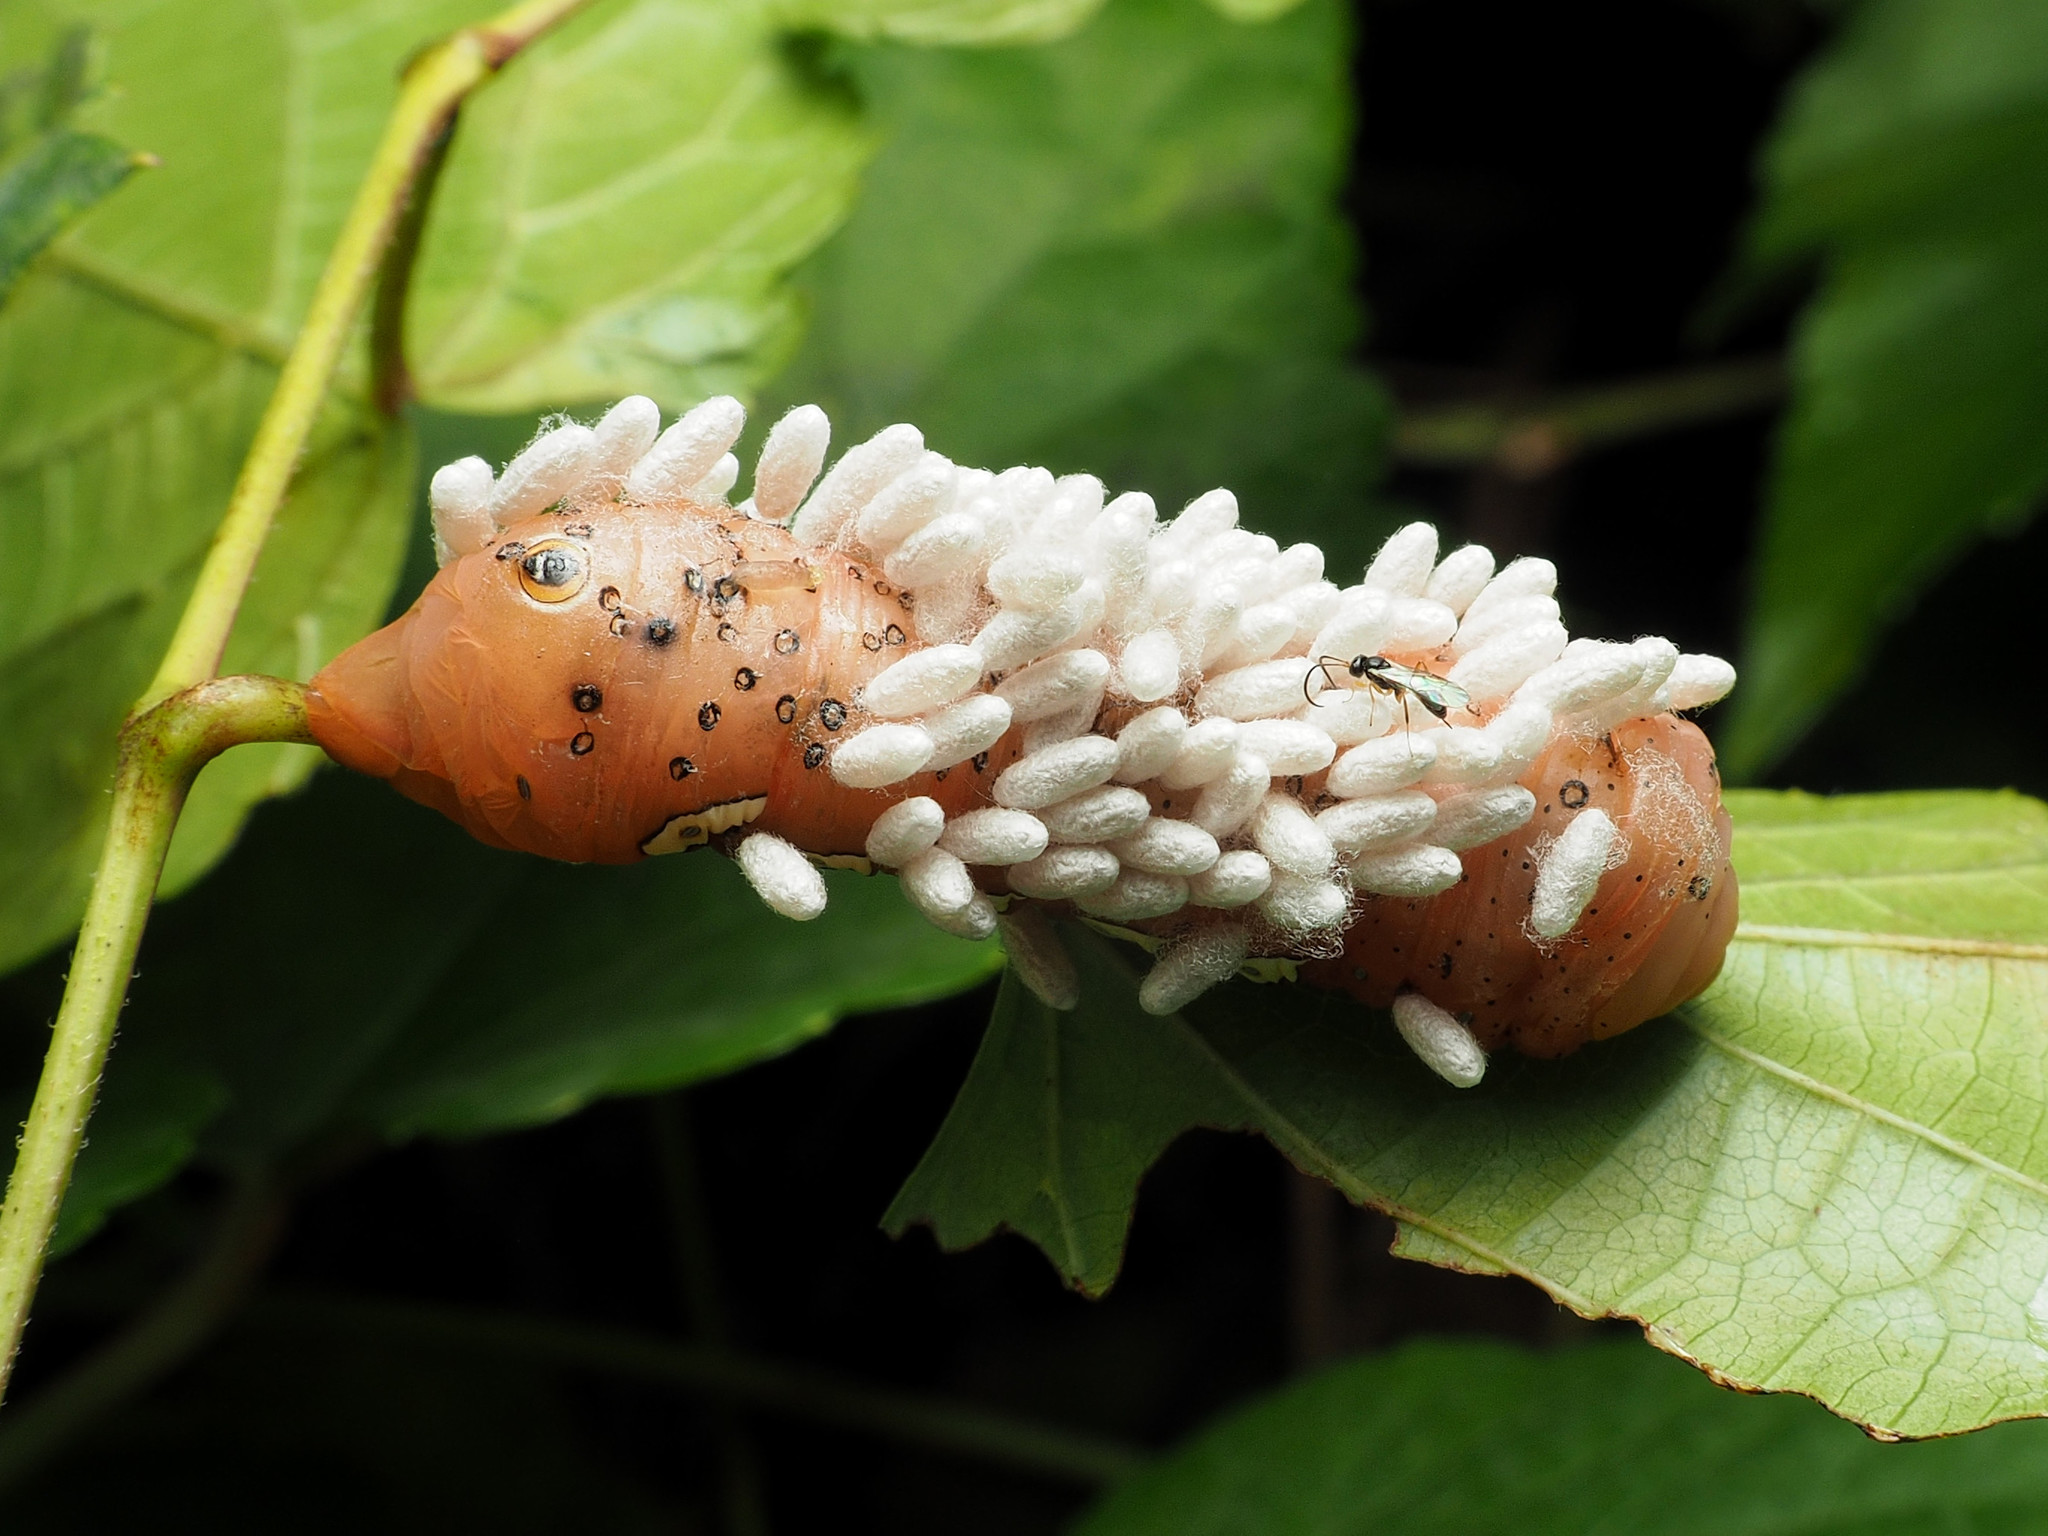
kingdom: Animalia
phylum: Arthropoda
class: Insecta
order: Hymenoptera
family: Braconidae
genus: Cotesia
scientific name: Cotesia congregata
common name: Hornworm parasitoid wasp
